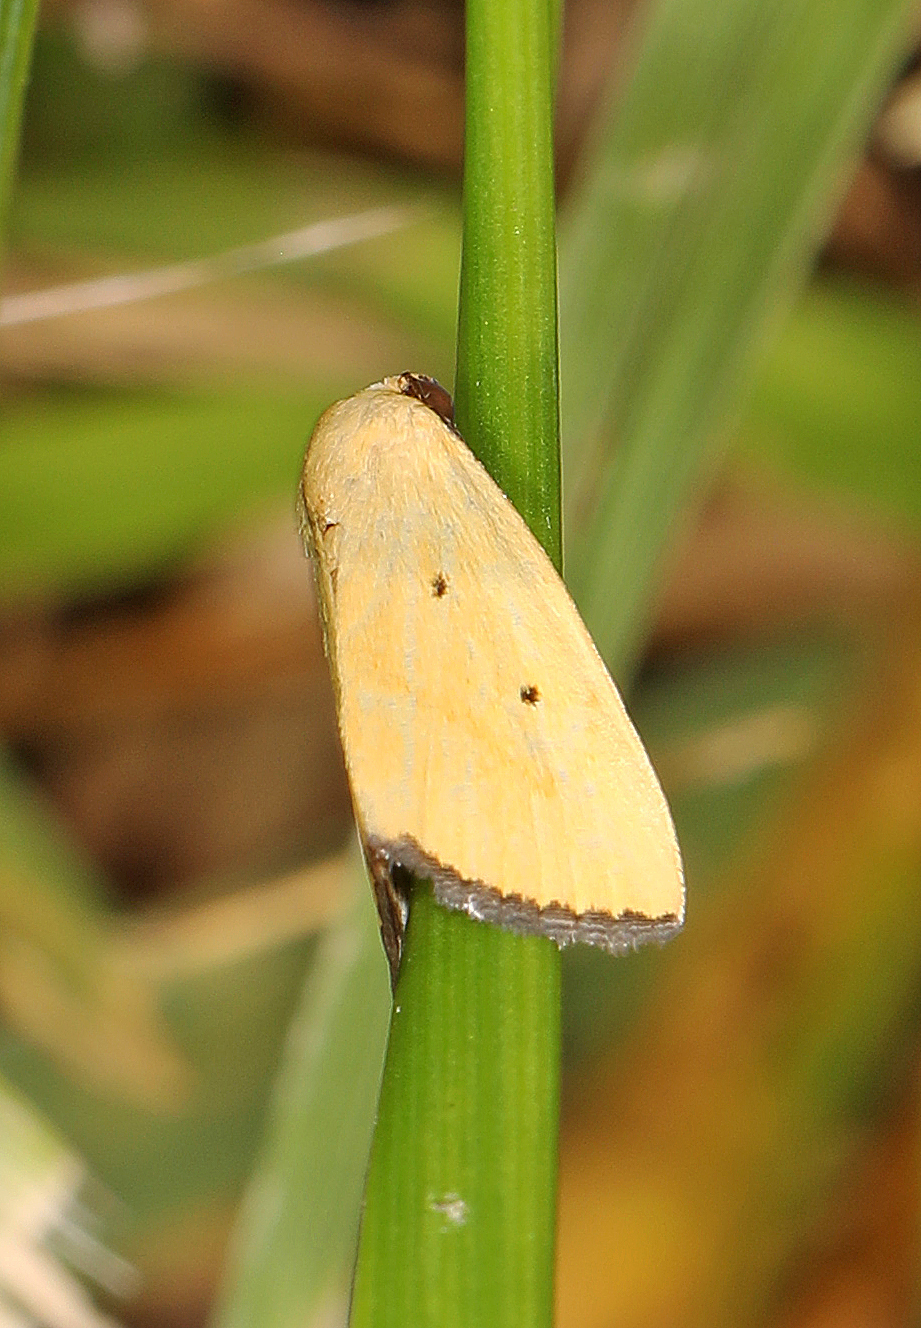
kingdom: Animalia
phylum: Arthropoda
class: Insecta
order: Lepidoptera
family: Noctuidae
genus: Marimatha
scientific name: Marimatha nigrofimbria
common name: Black-bordered lemon moth
